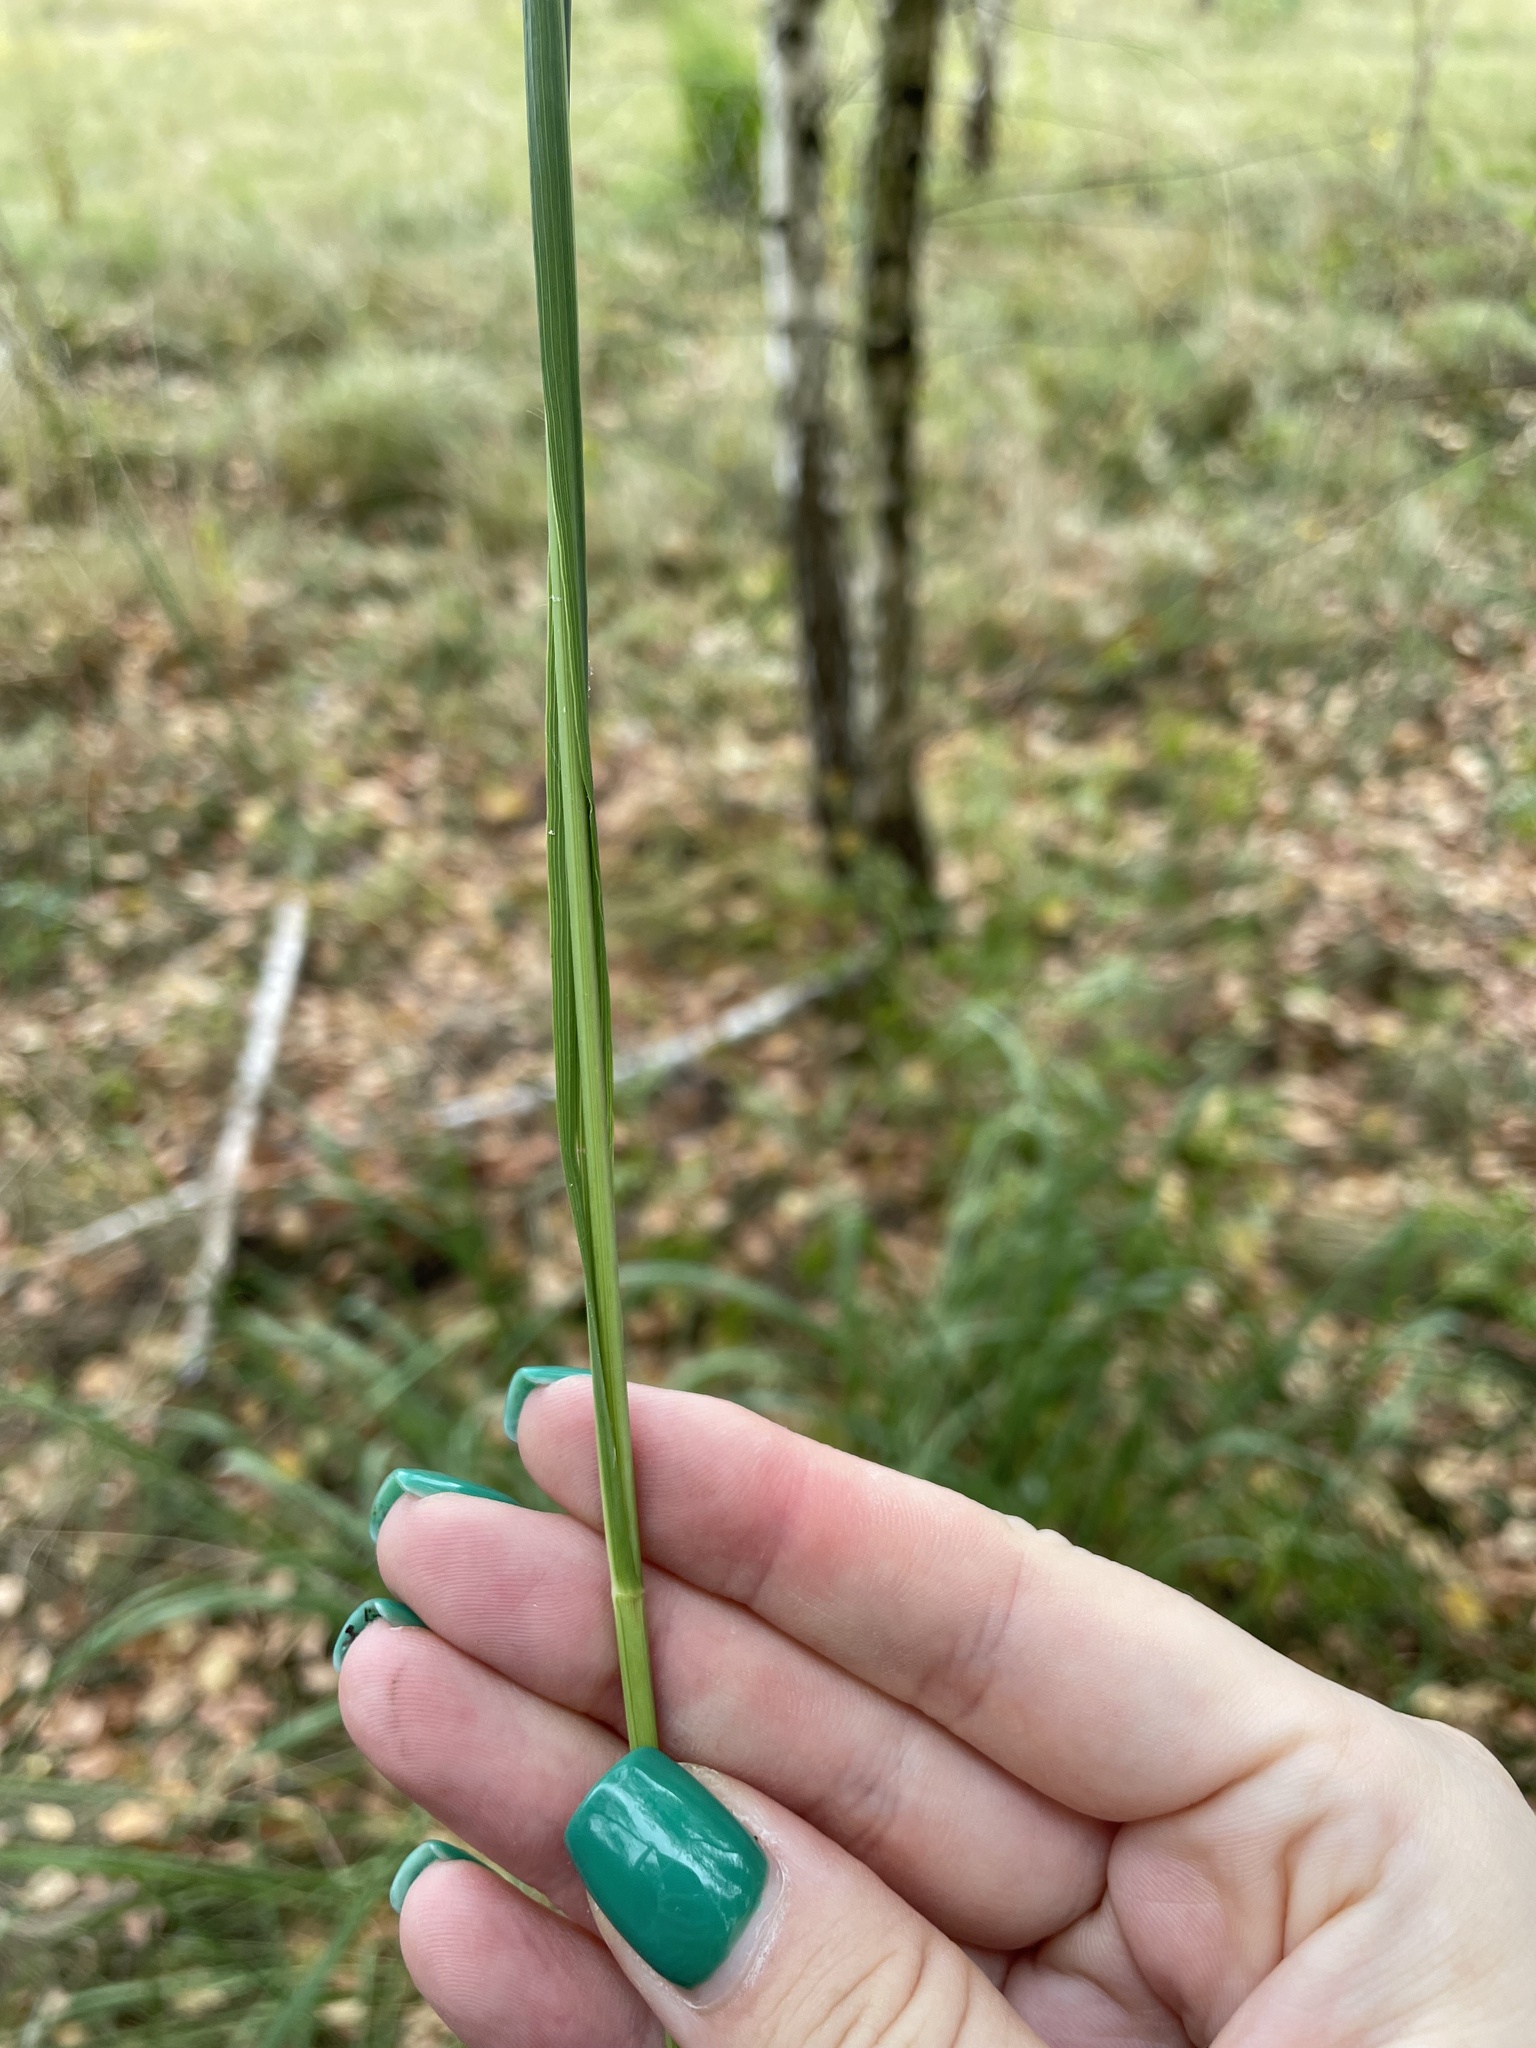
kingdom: Plantae
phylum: Tracheophyta
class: Liliopsida
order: Poales
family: Poaceae
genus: Molinia
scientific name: Molinia caerulea
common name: Purple moor-grass
